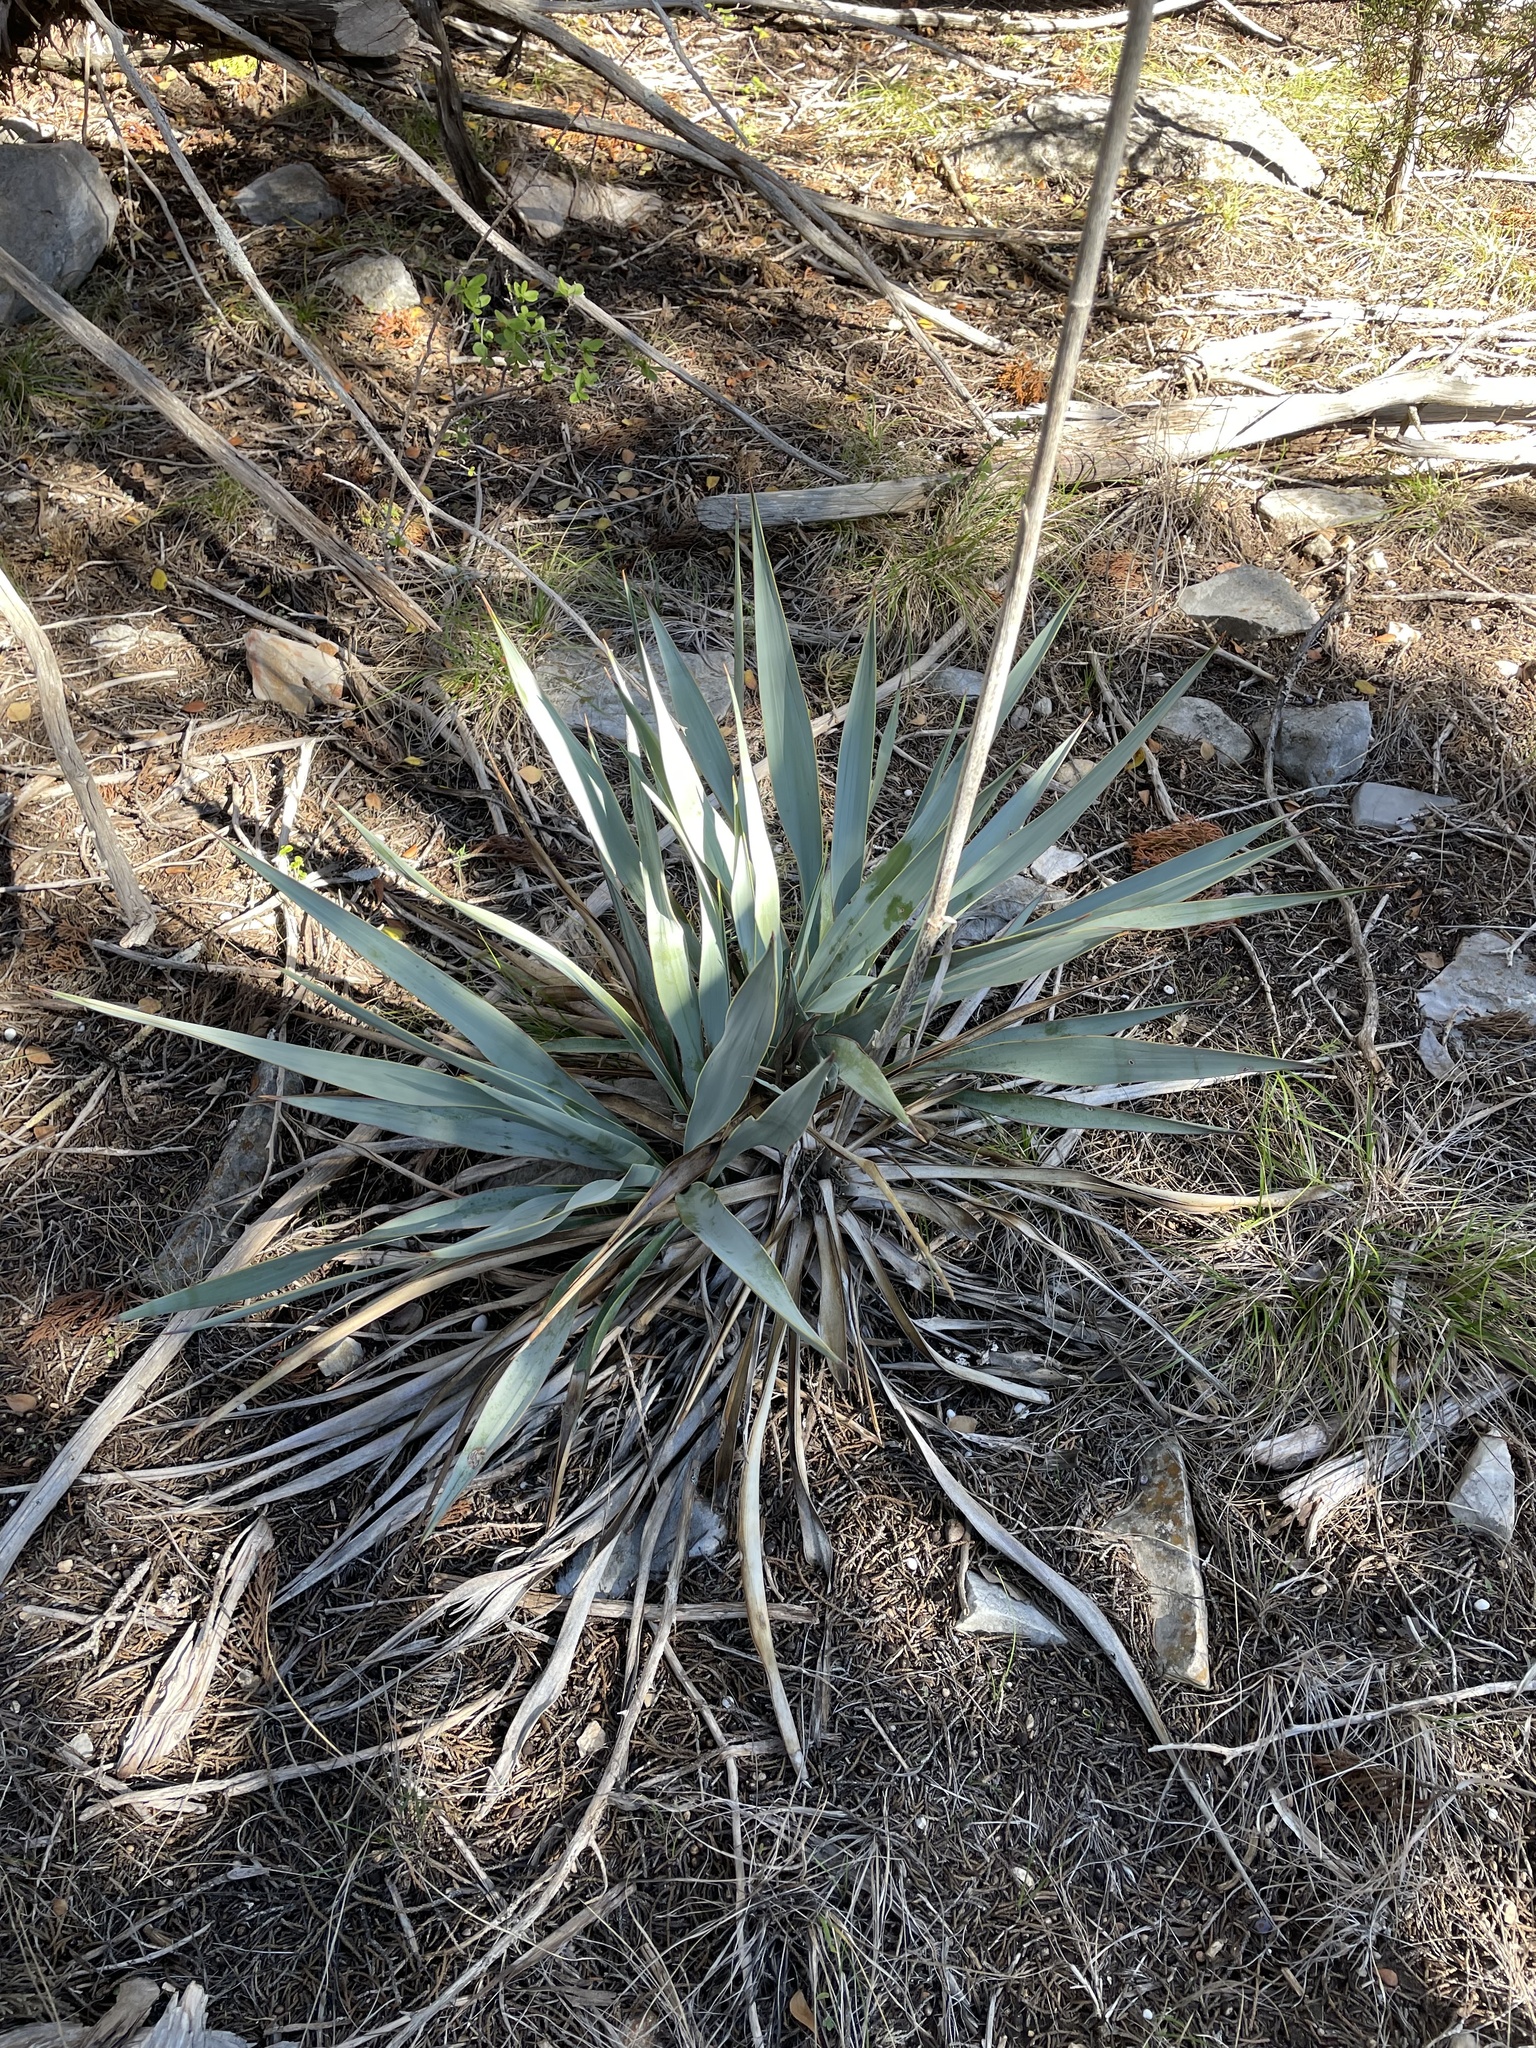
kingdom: Plantae
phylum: Tracheophyta
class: Liliopsida
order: Asparagales
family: Asparagaceae
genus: Yucca
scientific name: Yucca pallida
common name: Pale leaf yucca
